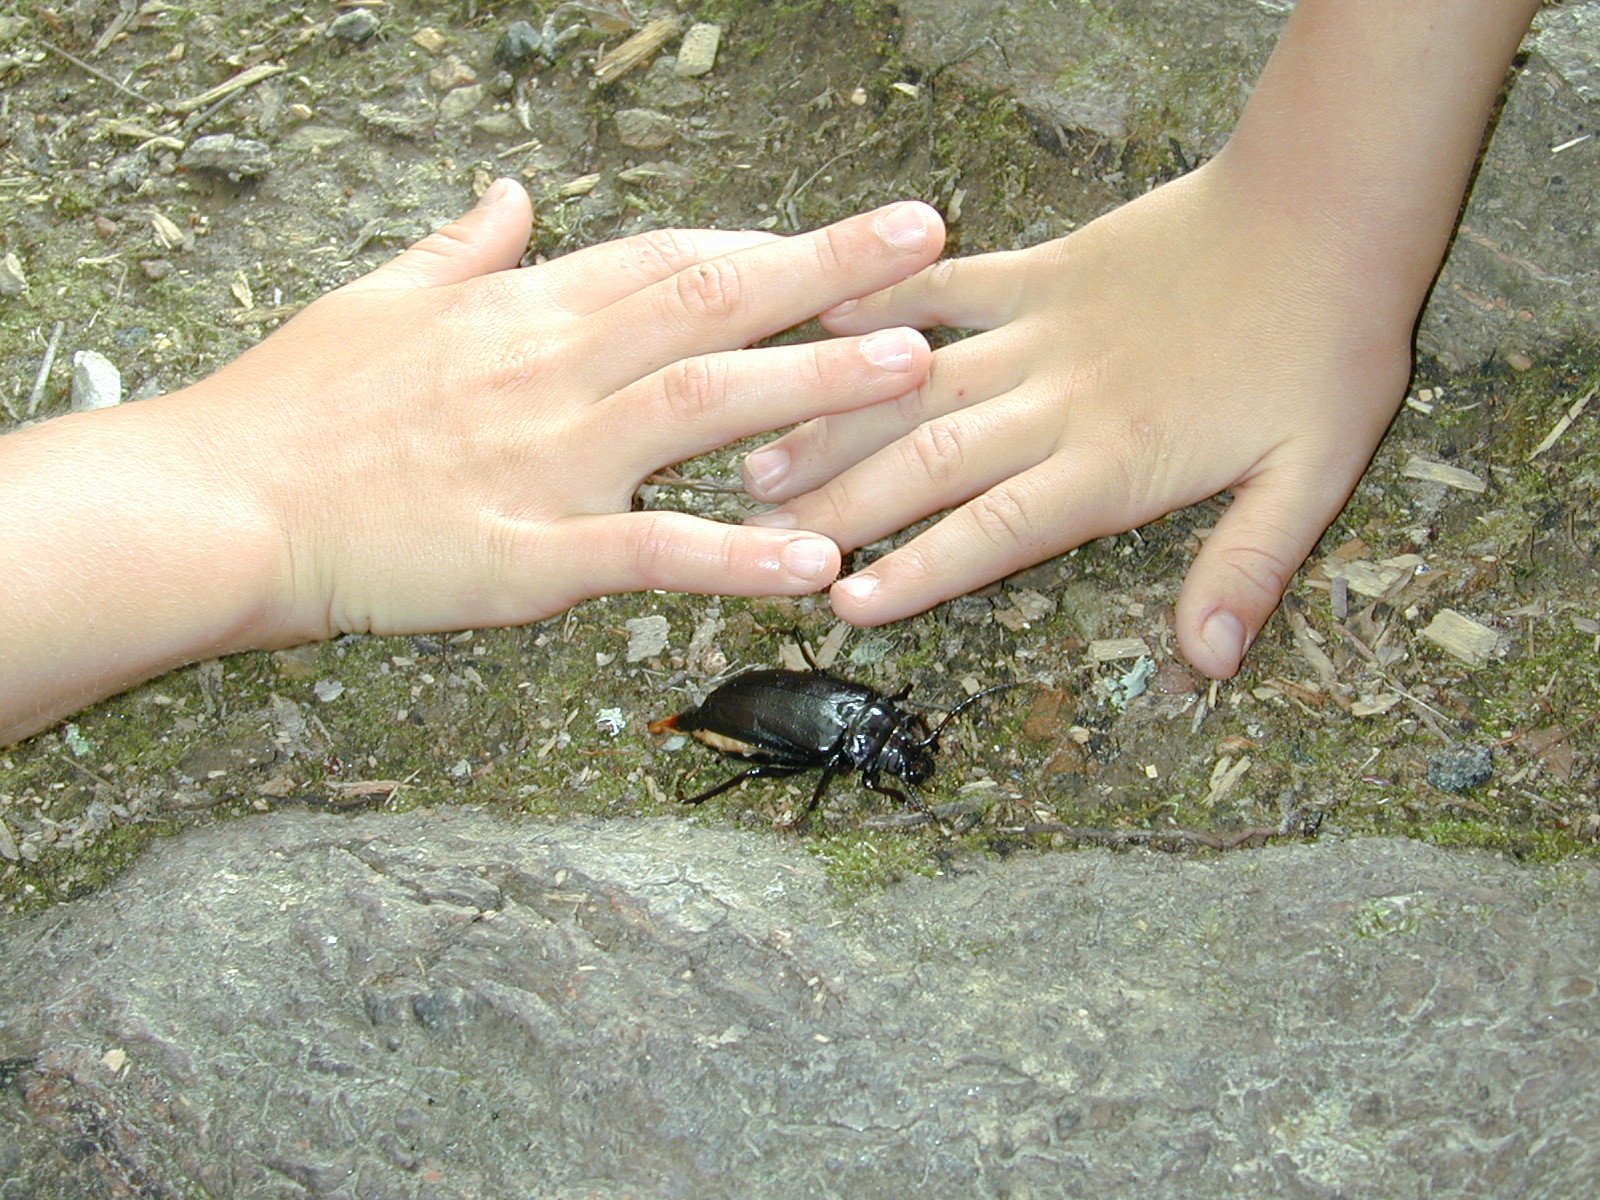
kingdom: Animalia
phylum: Arthropoda
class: Insecta
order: Coleoptera
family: Cerambycidae
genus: Prionus
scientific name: Prionus laticollis
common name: Broad necked prionus
